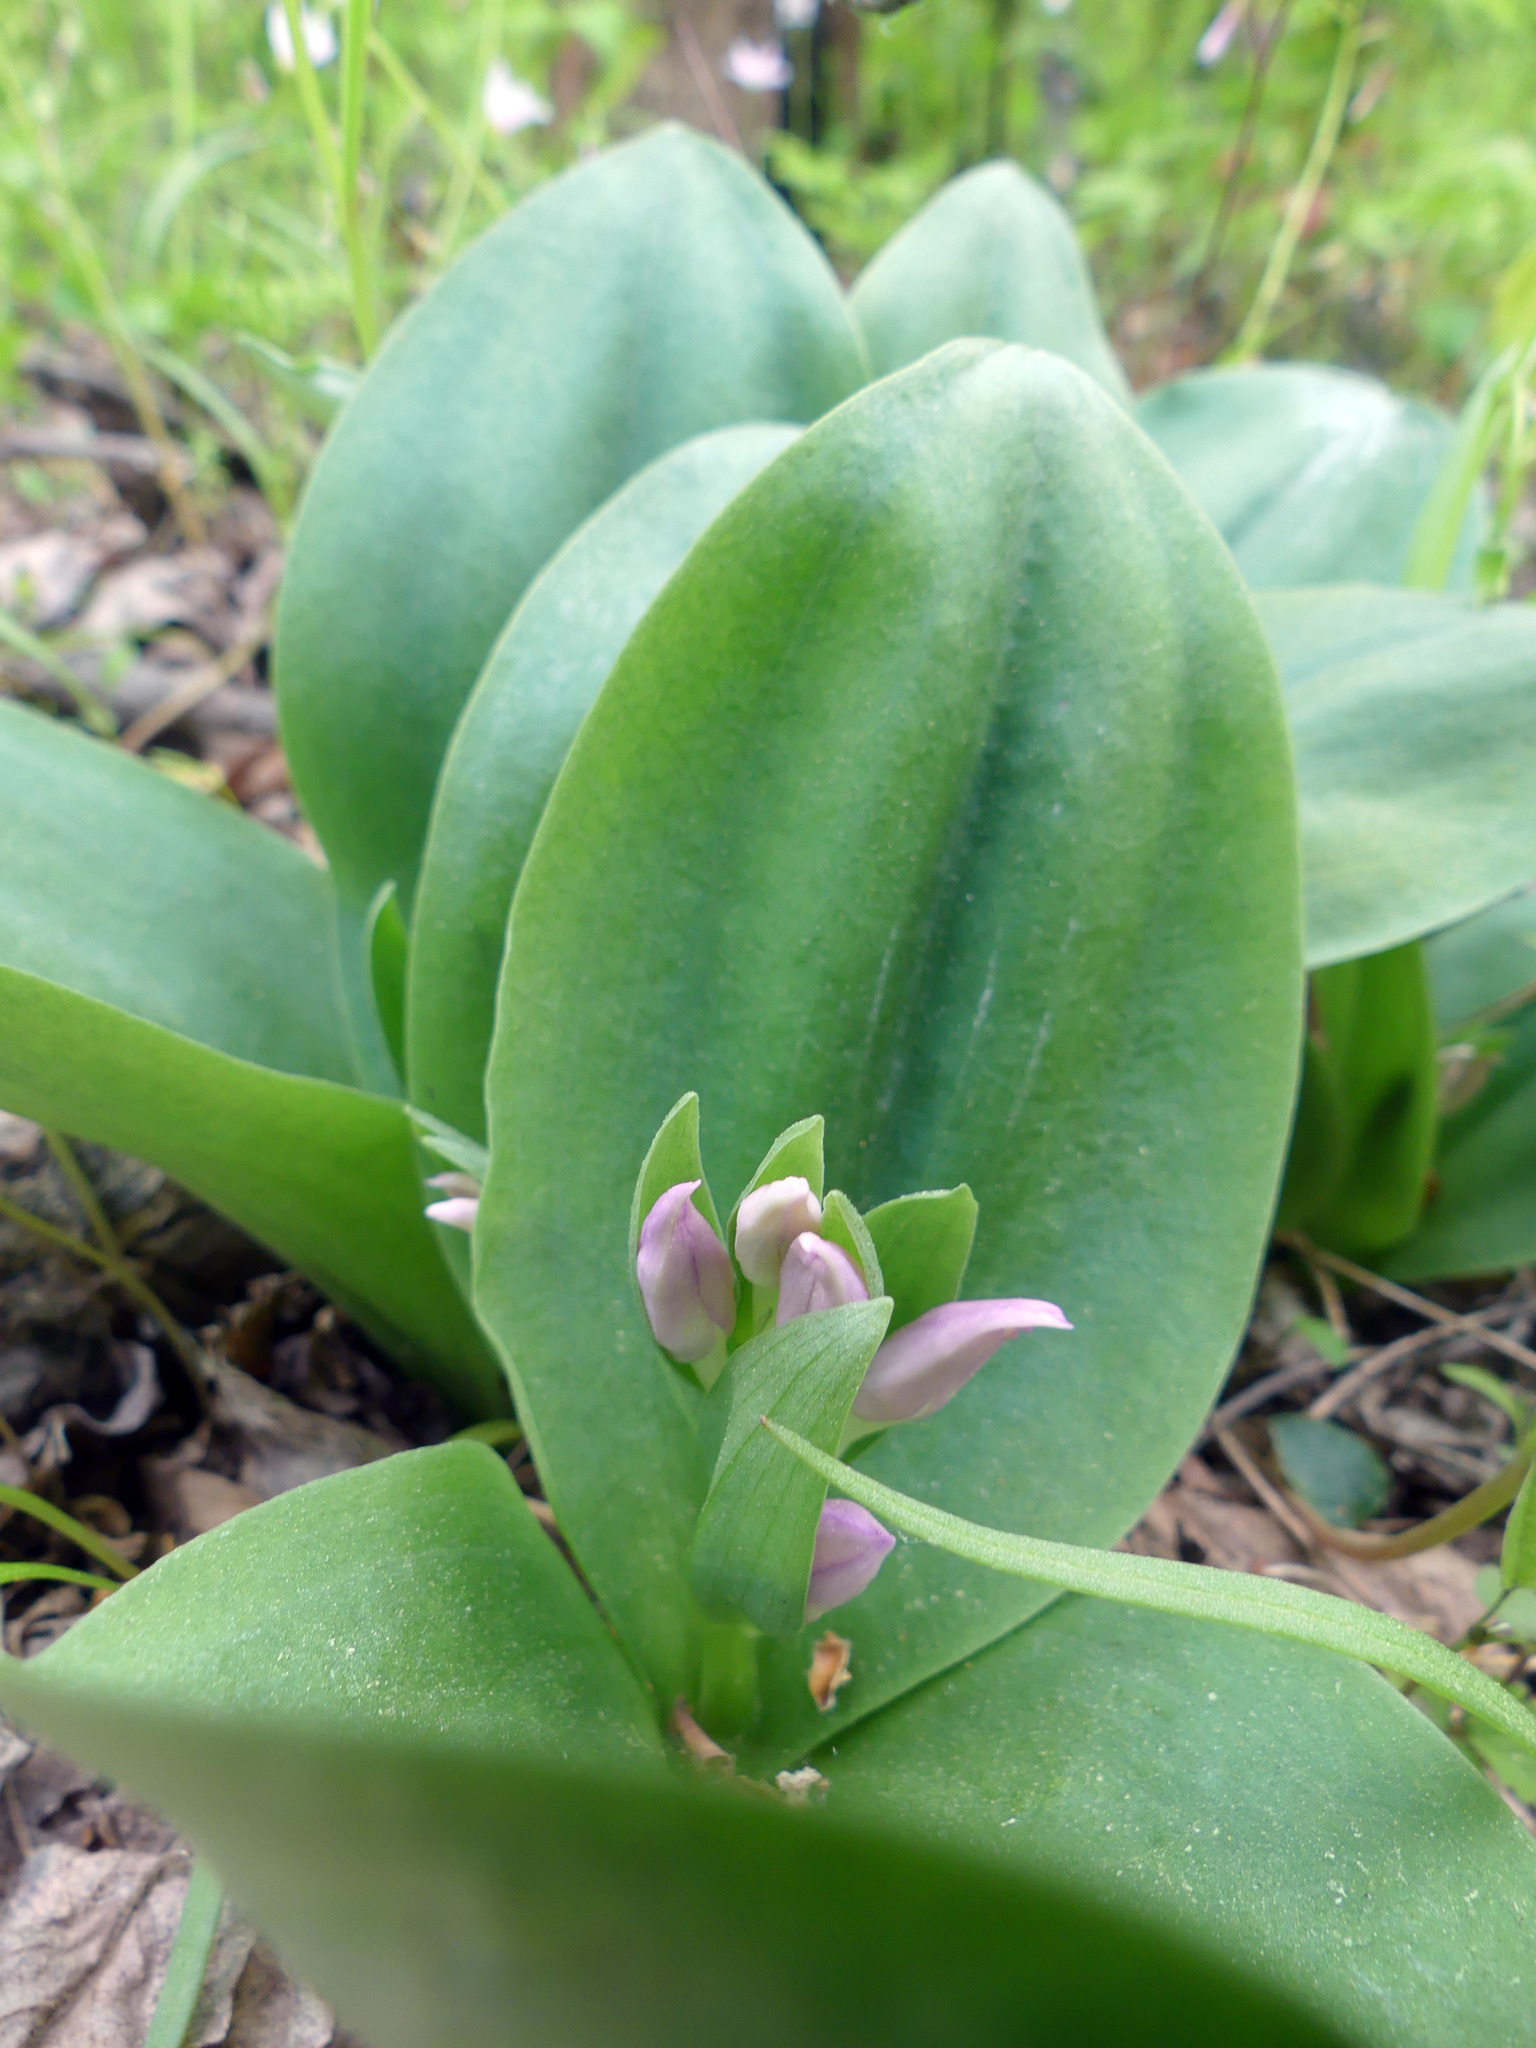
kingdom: Plantae
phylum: Tracheophyta
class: Liliopsida
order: Asparagales
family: Orchidaceae
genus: Galearis
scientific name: Galearis spectabilis
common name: Purple-hooded orchis
